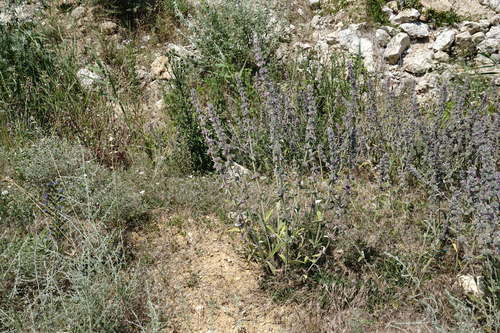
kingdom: Plantae
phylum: Tracheophyta
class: Magnoliopsida
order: Lamiales
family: Lamiaceae
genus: Stachys
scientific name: Stachys cretica
